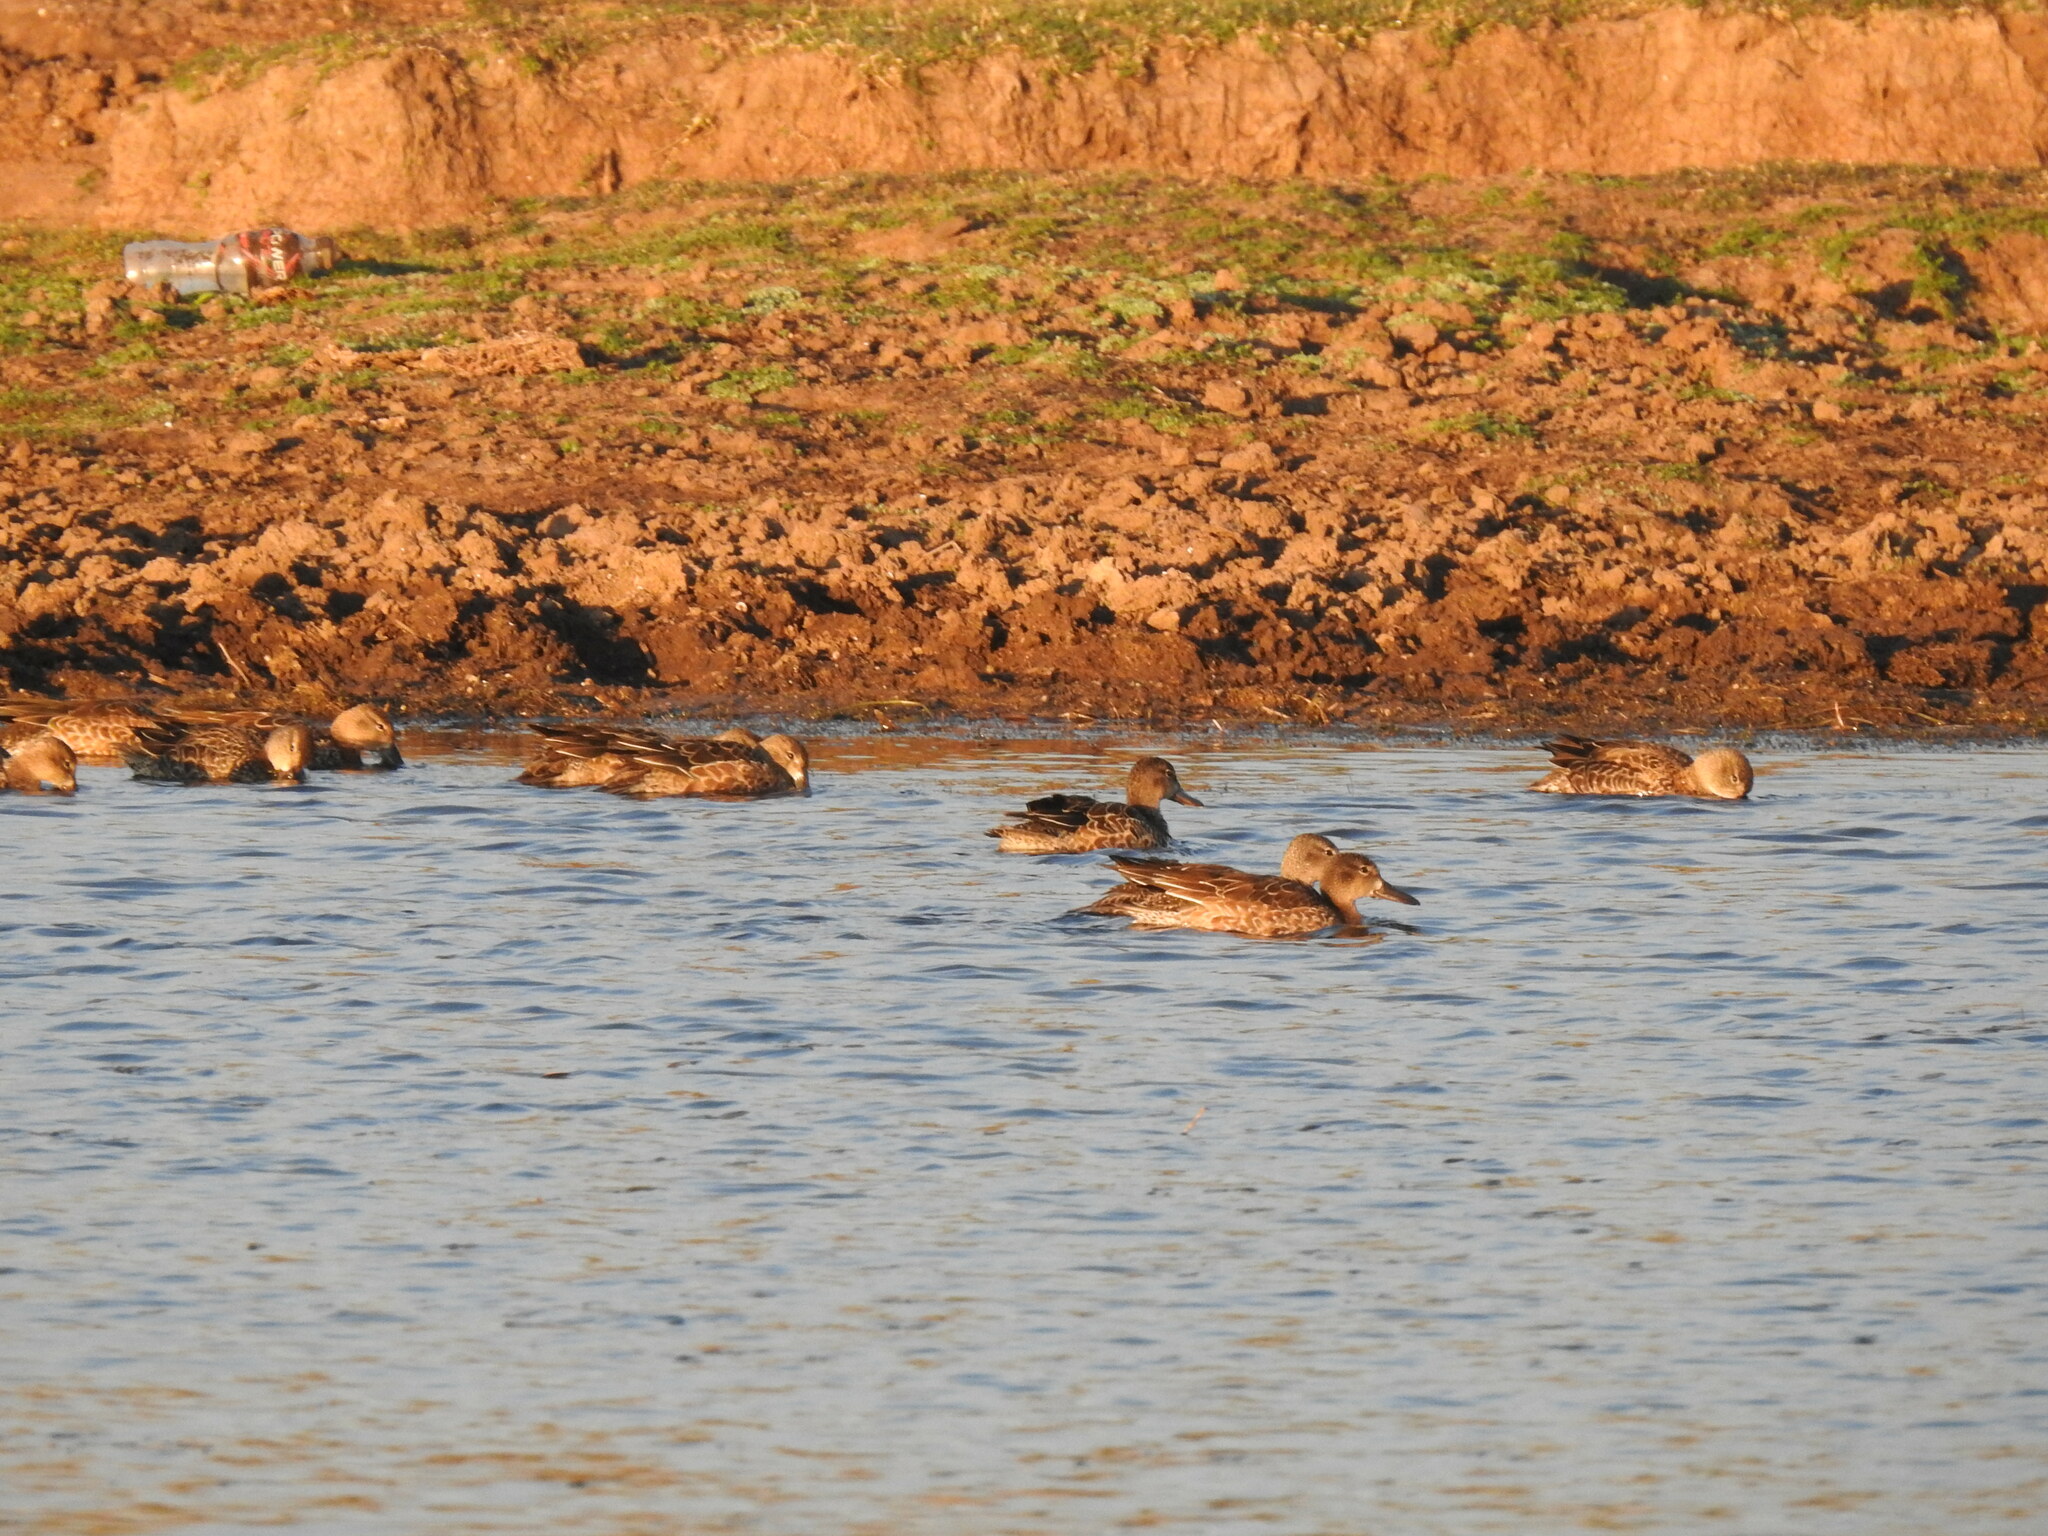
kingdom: Animalia
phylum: Chordata
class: Aves
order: Anseriformes
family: Anatidae
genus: Spatula
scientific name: Spatula discors
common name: Blue-winged teal
